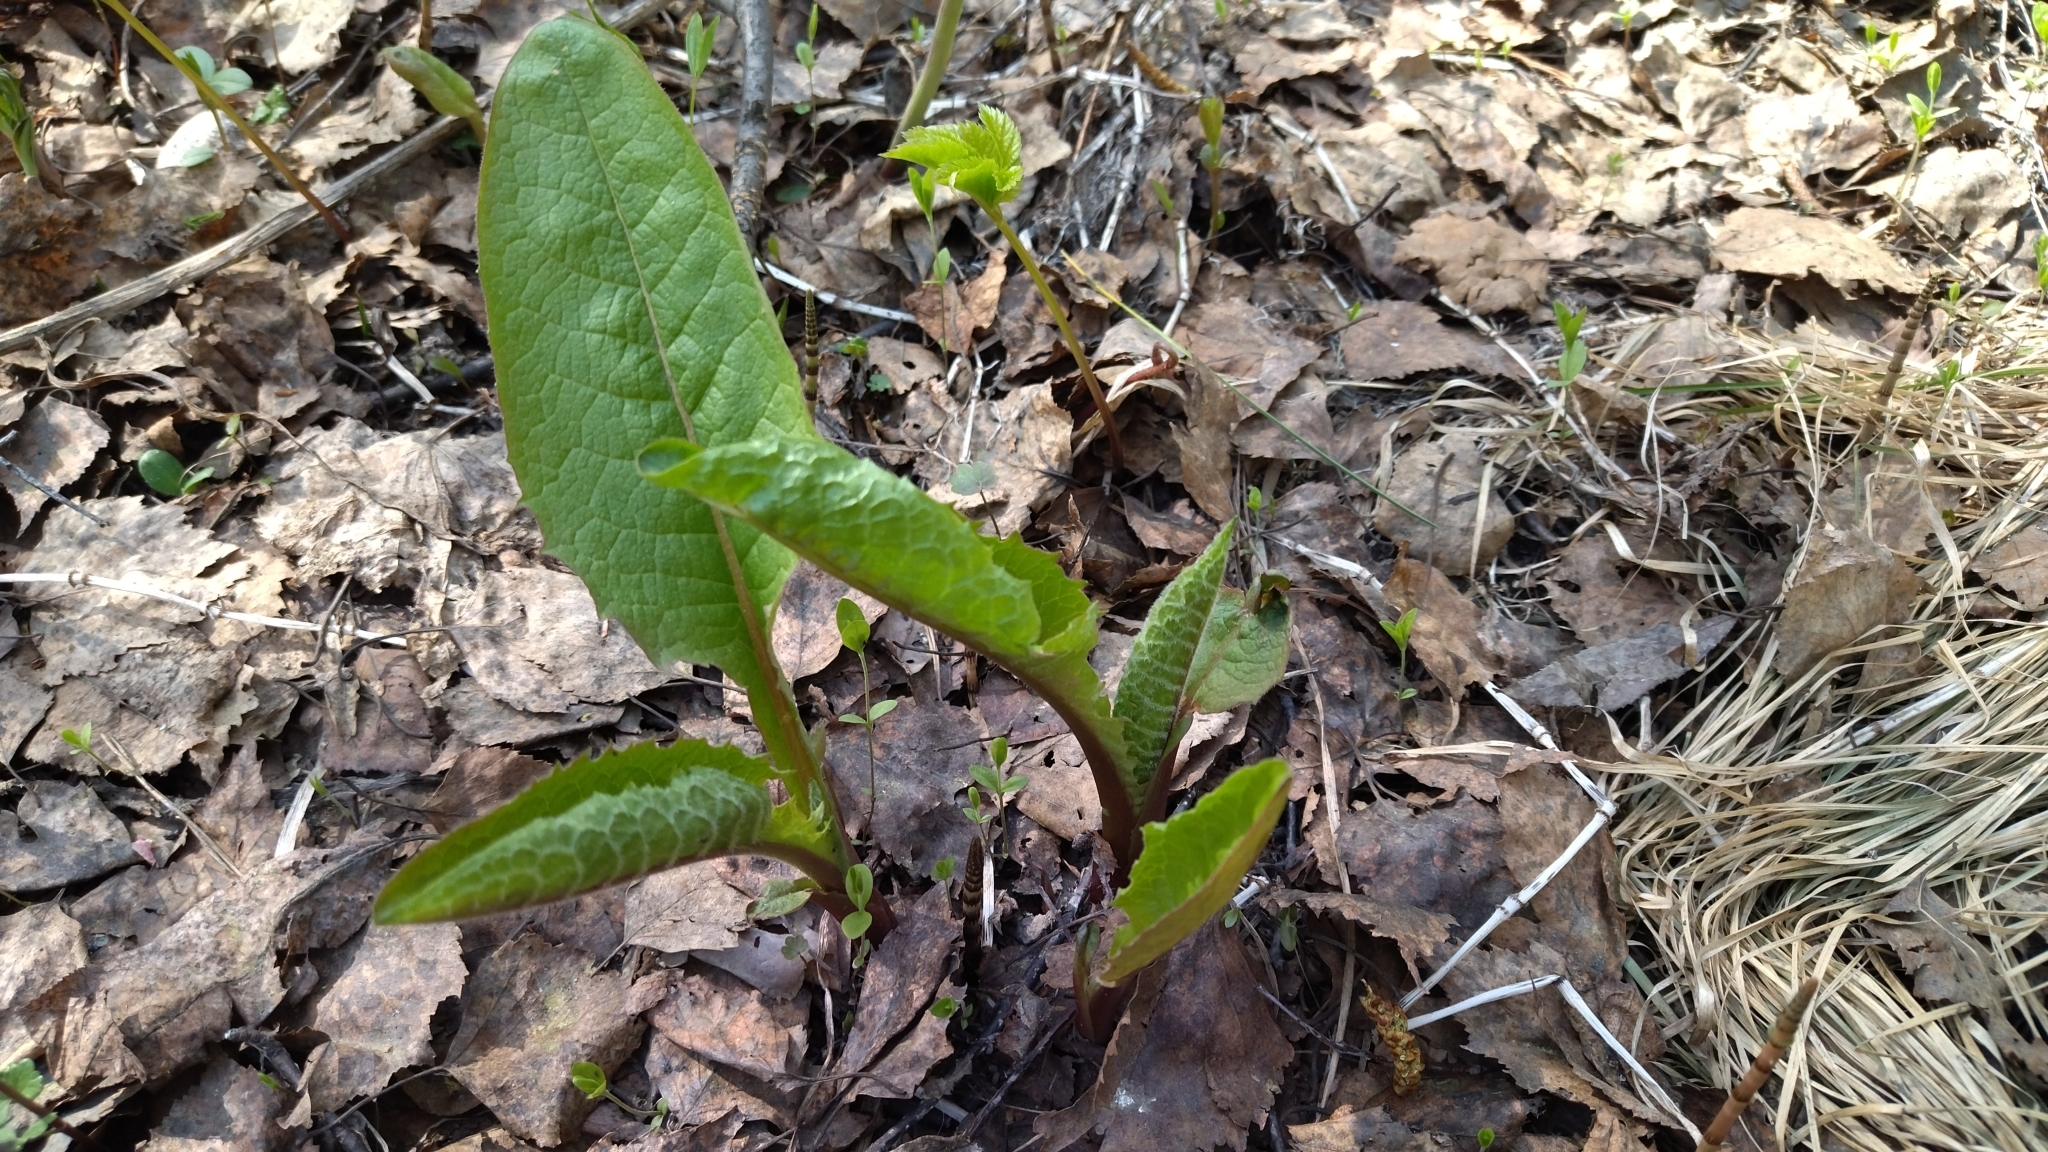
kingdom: Plantae
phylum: Tracheophyta
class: Magnoliopsida
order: Asterales
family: Asteraceae
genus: Crepis
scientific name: Crepis sibirica
